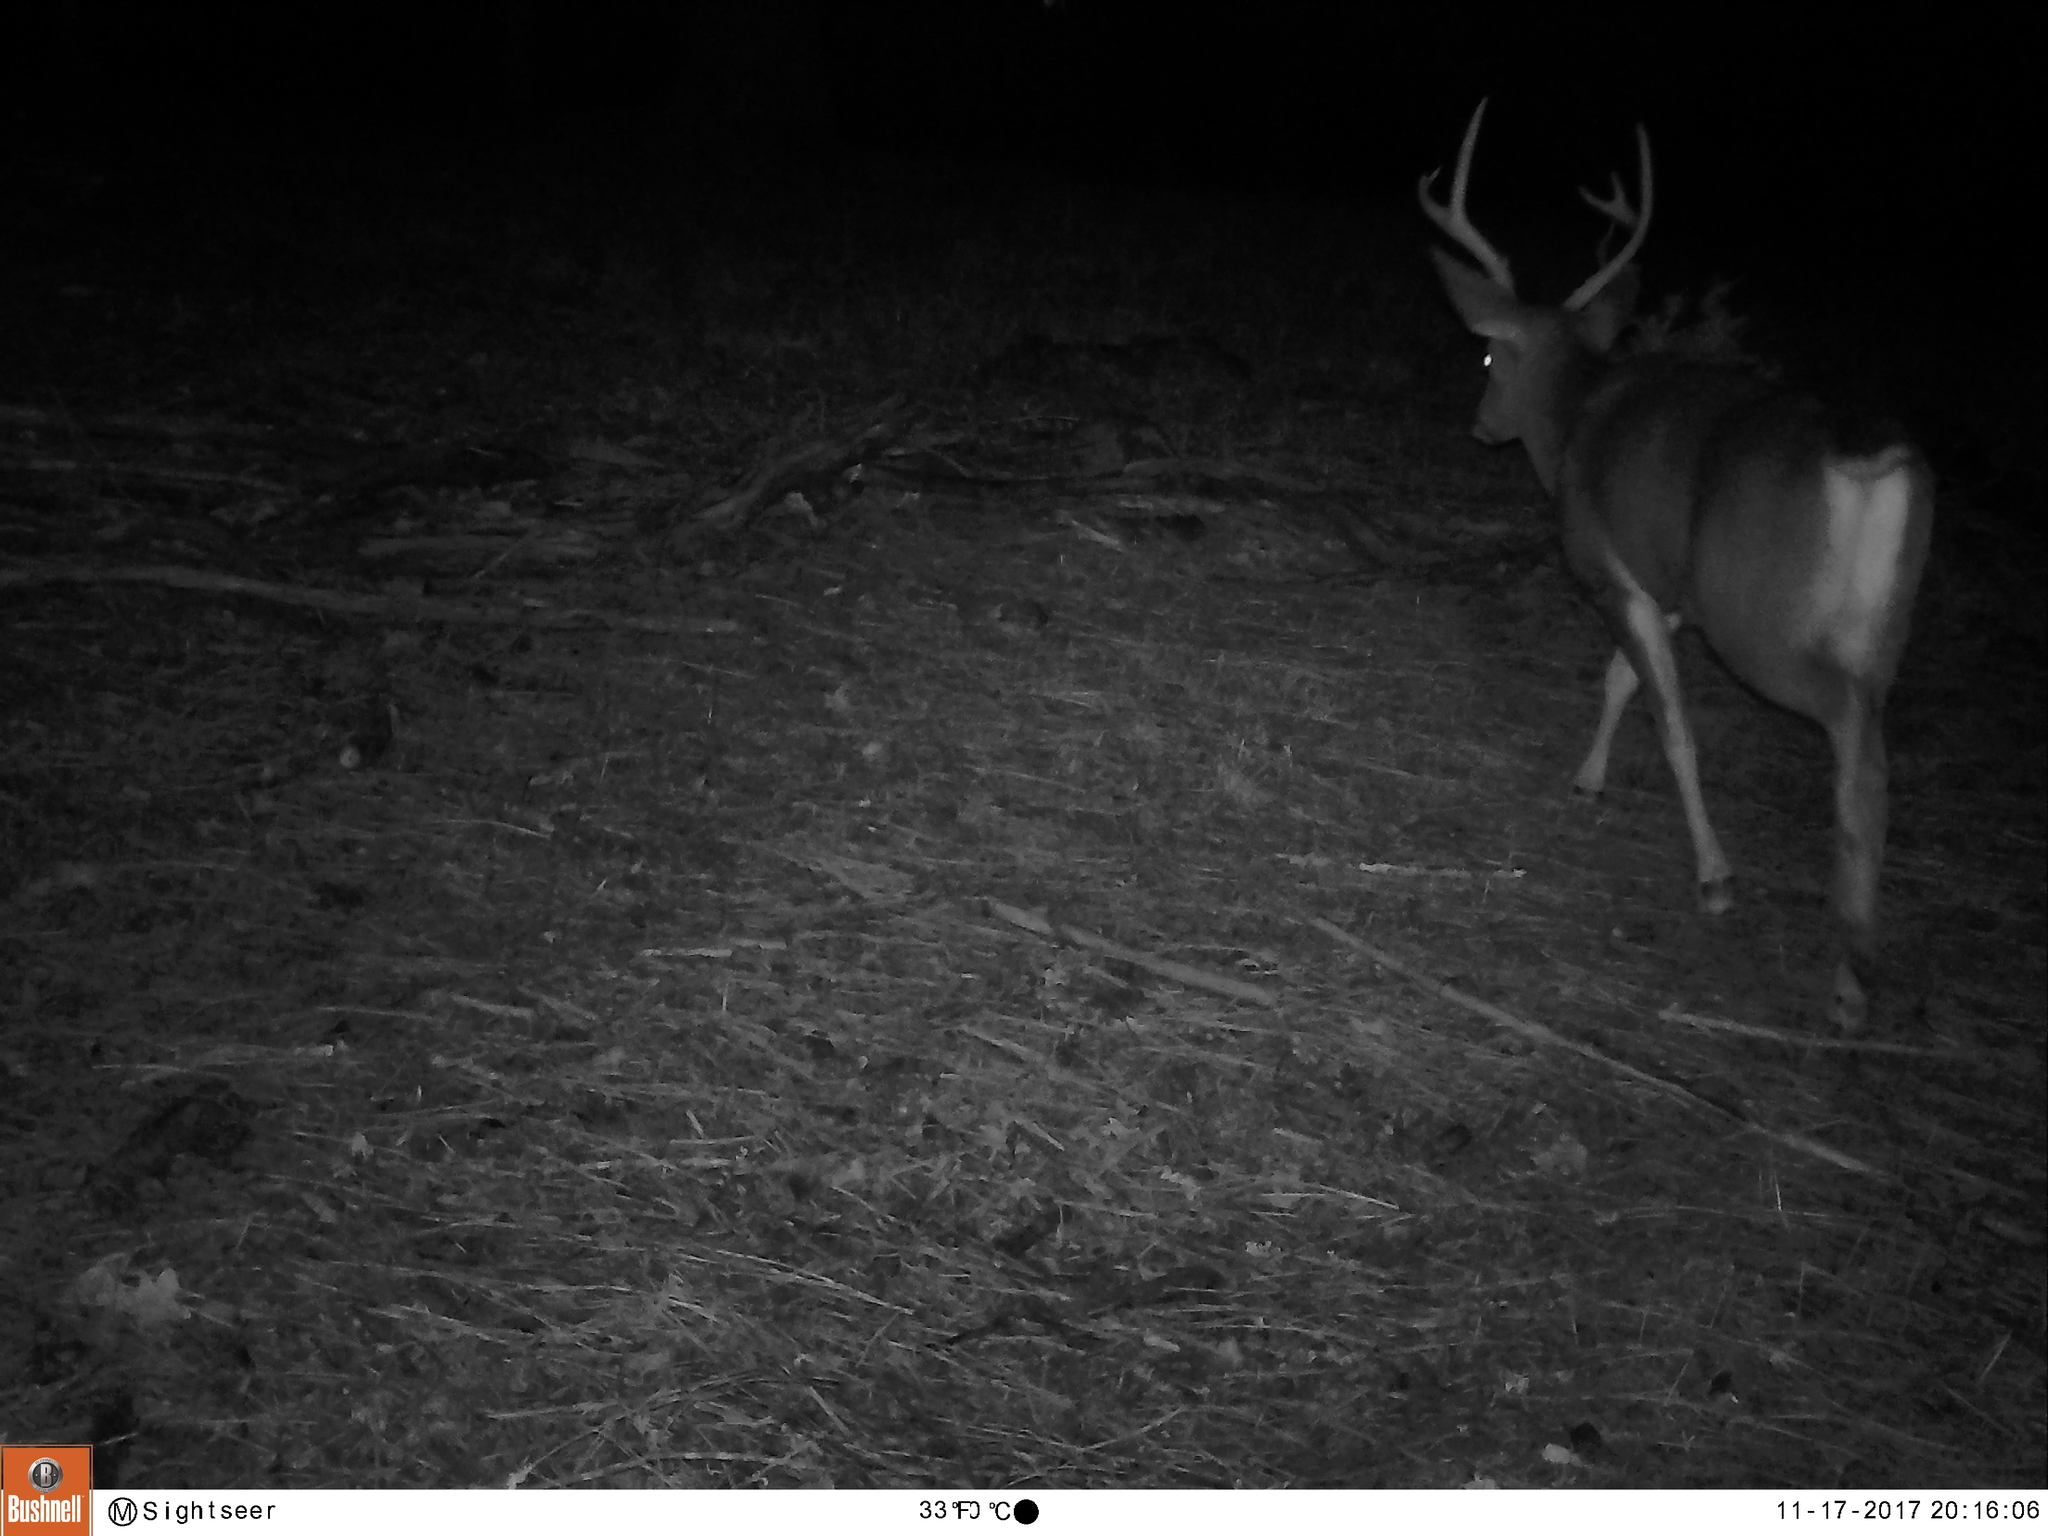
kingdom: Animalia
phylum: Chordata
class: Mammalia
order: Artiodactyla
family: Cervidae
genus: Odocoileus
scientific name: Odocoileus hemionus
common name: Mule deer
